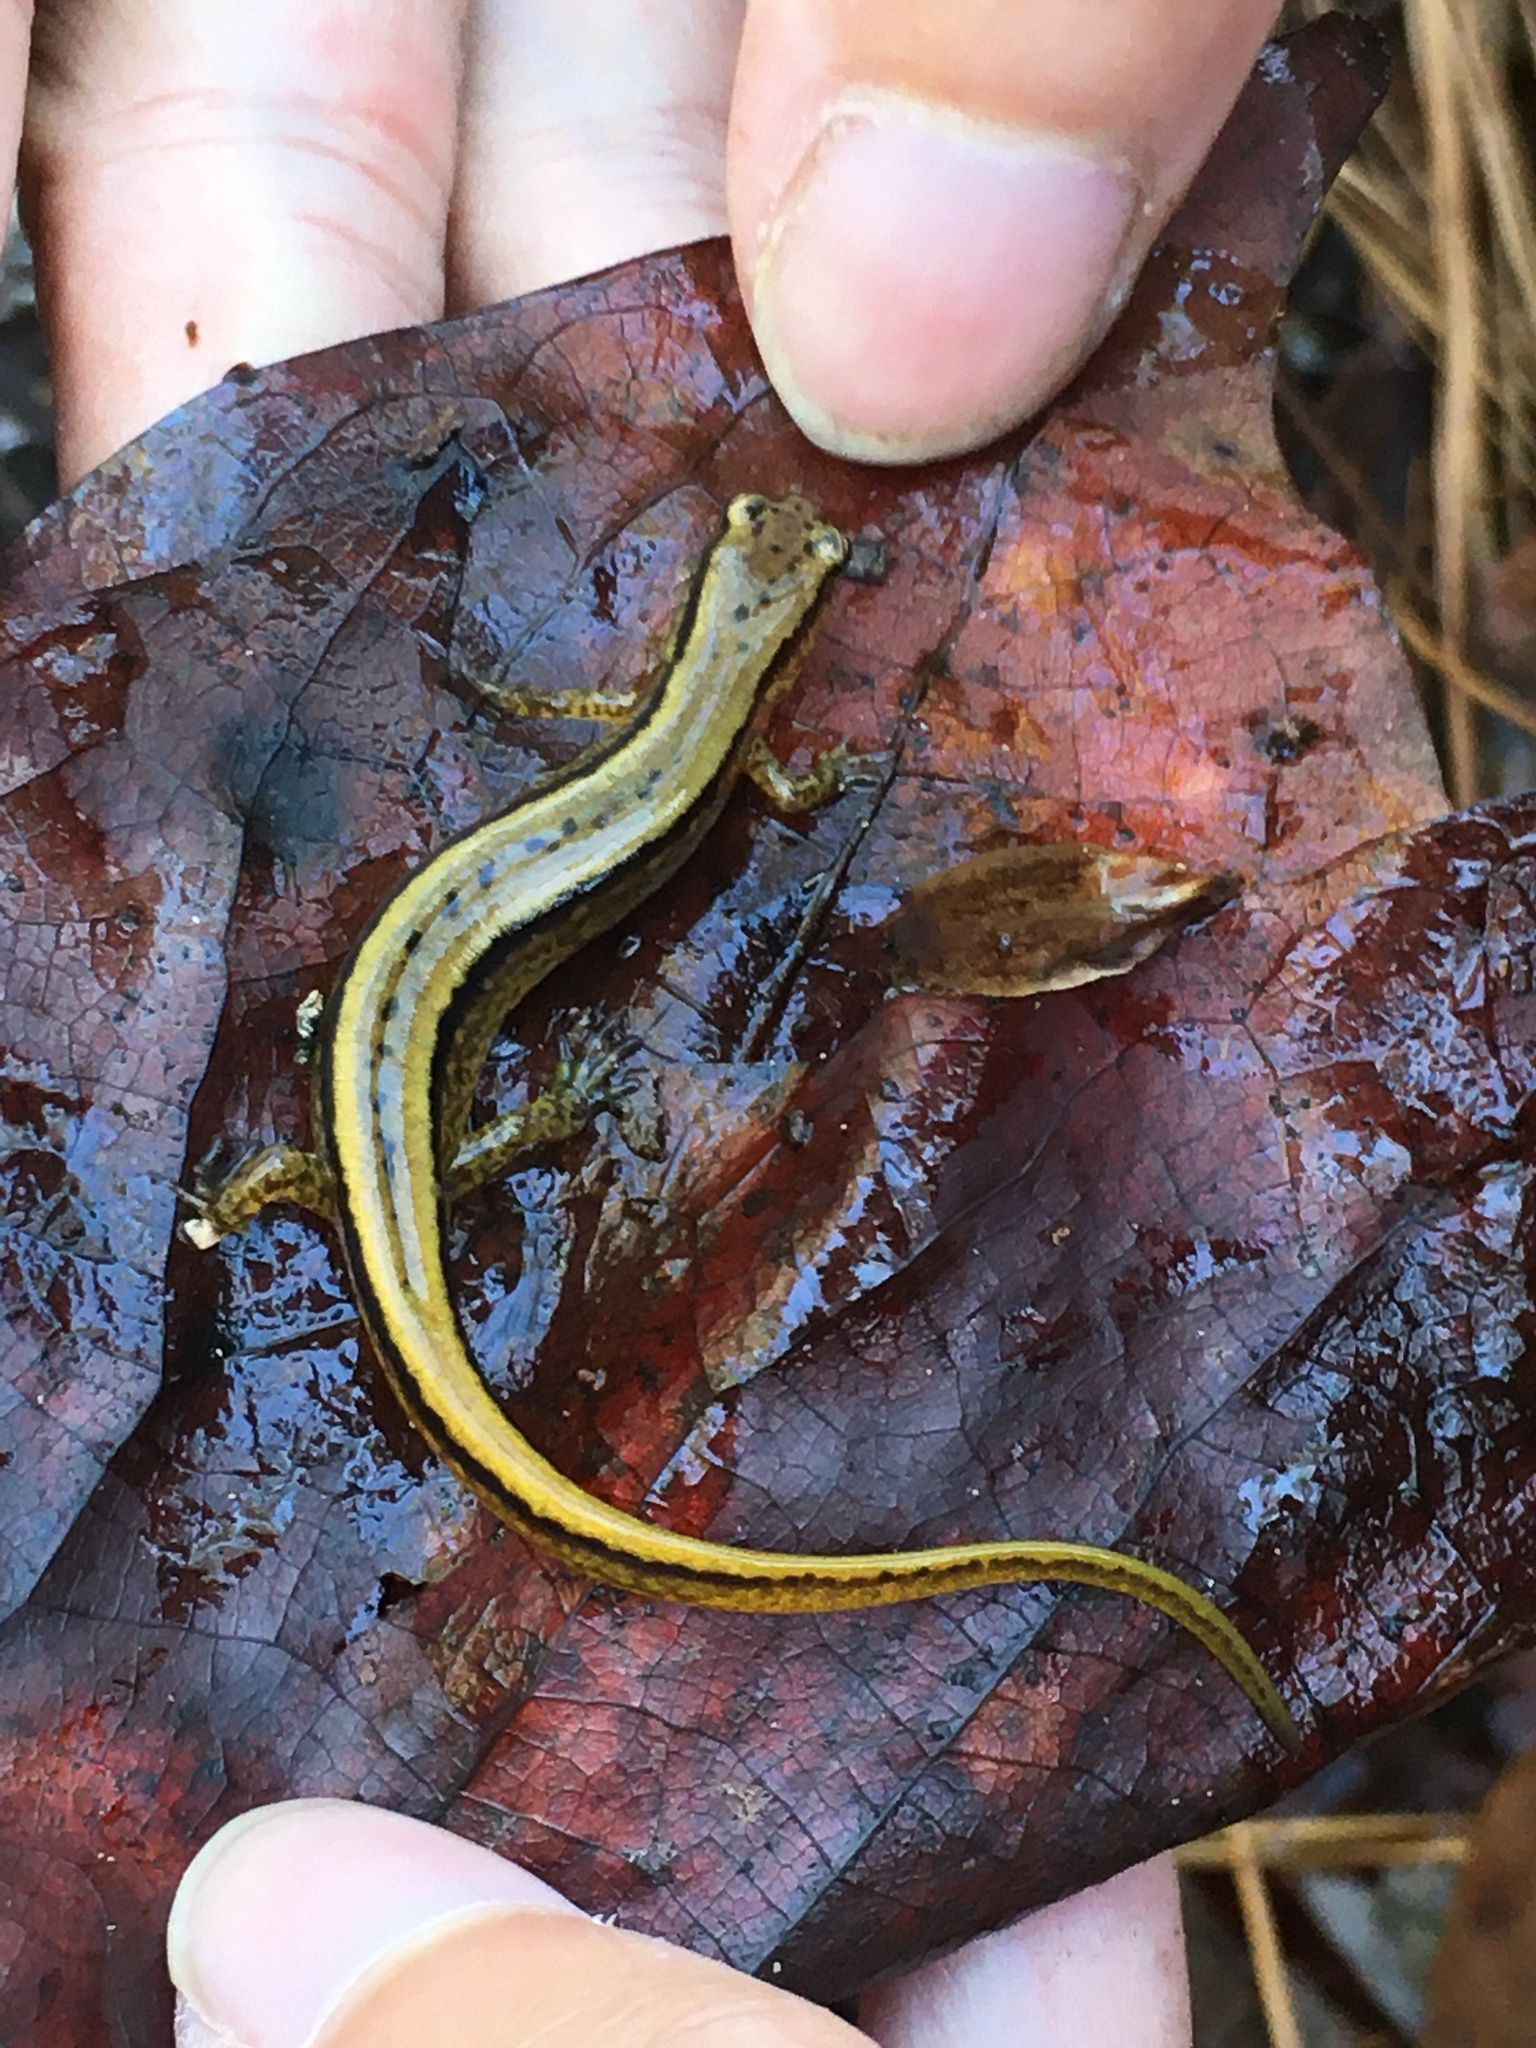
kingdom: Animalia
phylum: Chordata
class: Amphibia
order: Caudata
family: Plethodontidae
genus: Eurycea
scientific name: Eurycea cirrigera
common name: Southern two-lined salamander
